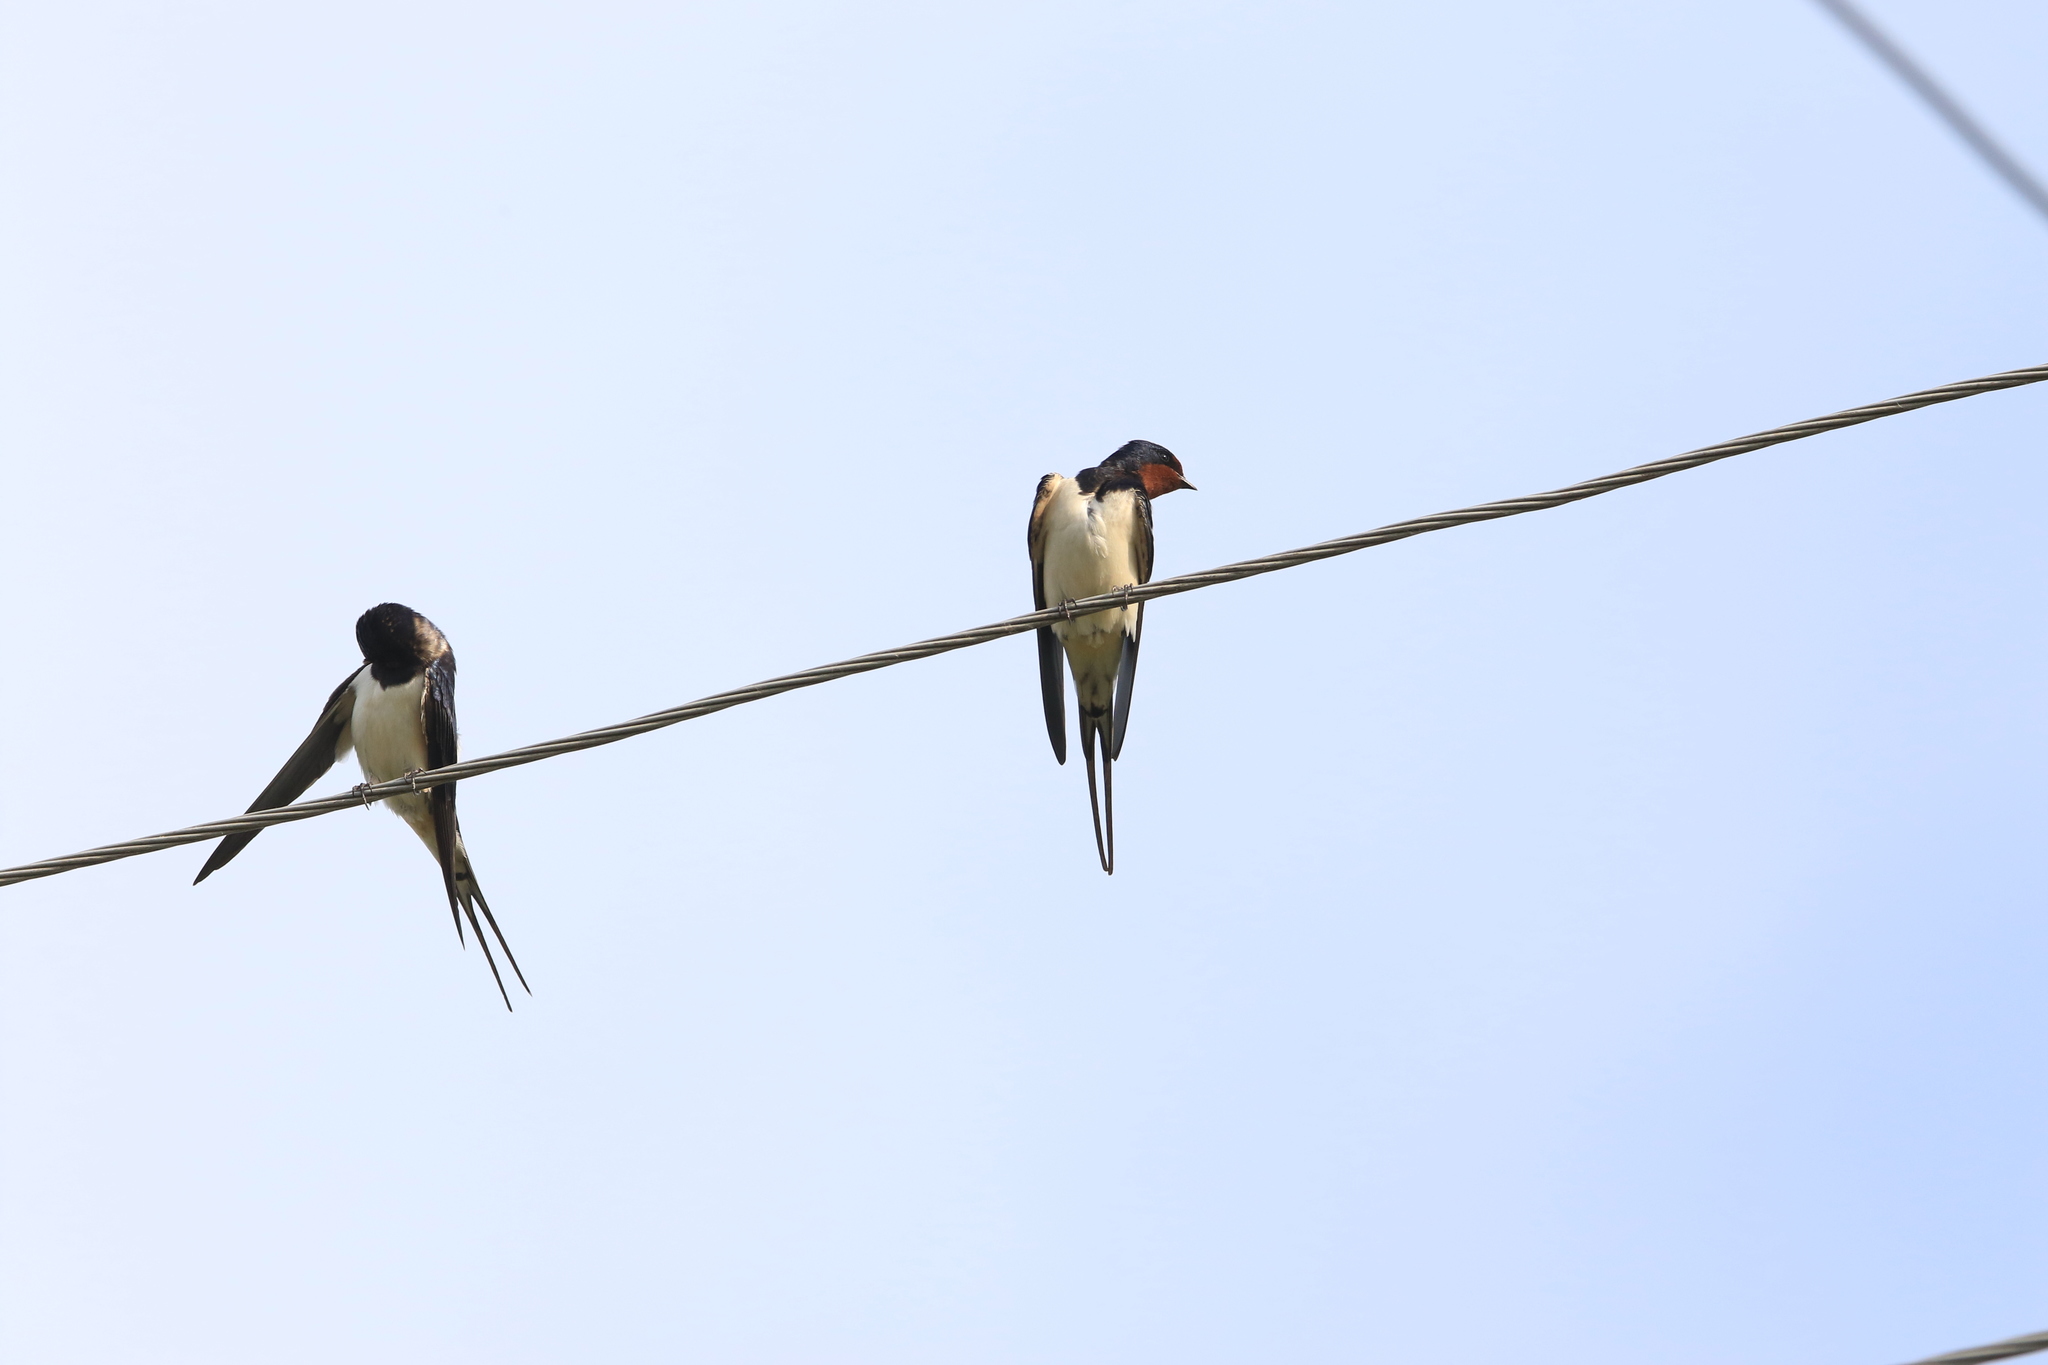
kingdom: Animalia
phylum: Chordata
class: Aves
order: Passeriformes
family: Hirundinidae
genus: Hirundo
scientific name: Hirundo rustica
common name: Barn swallow
